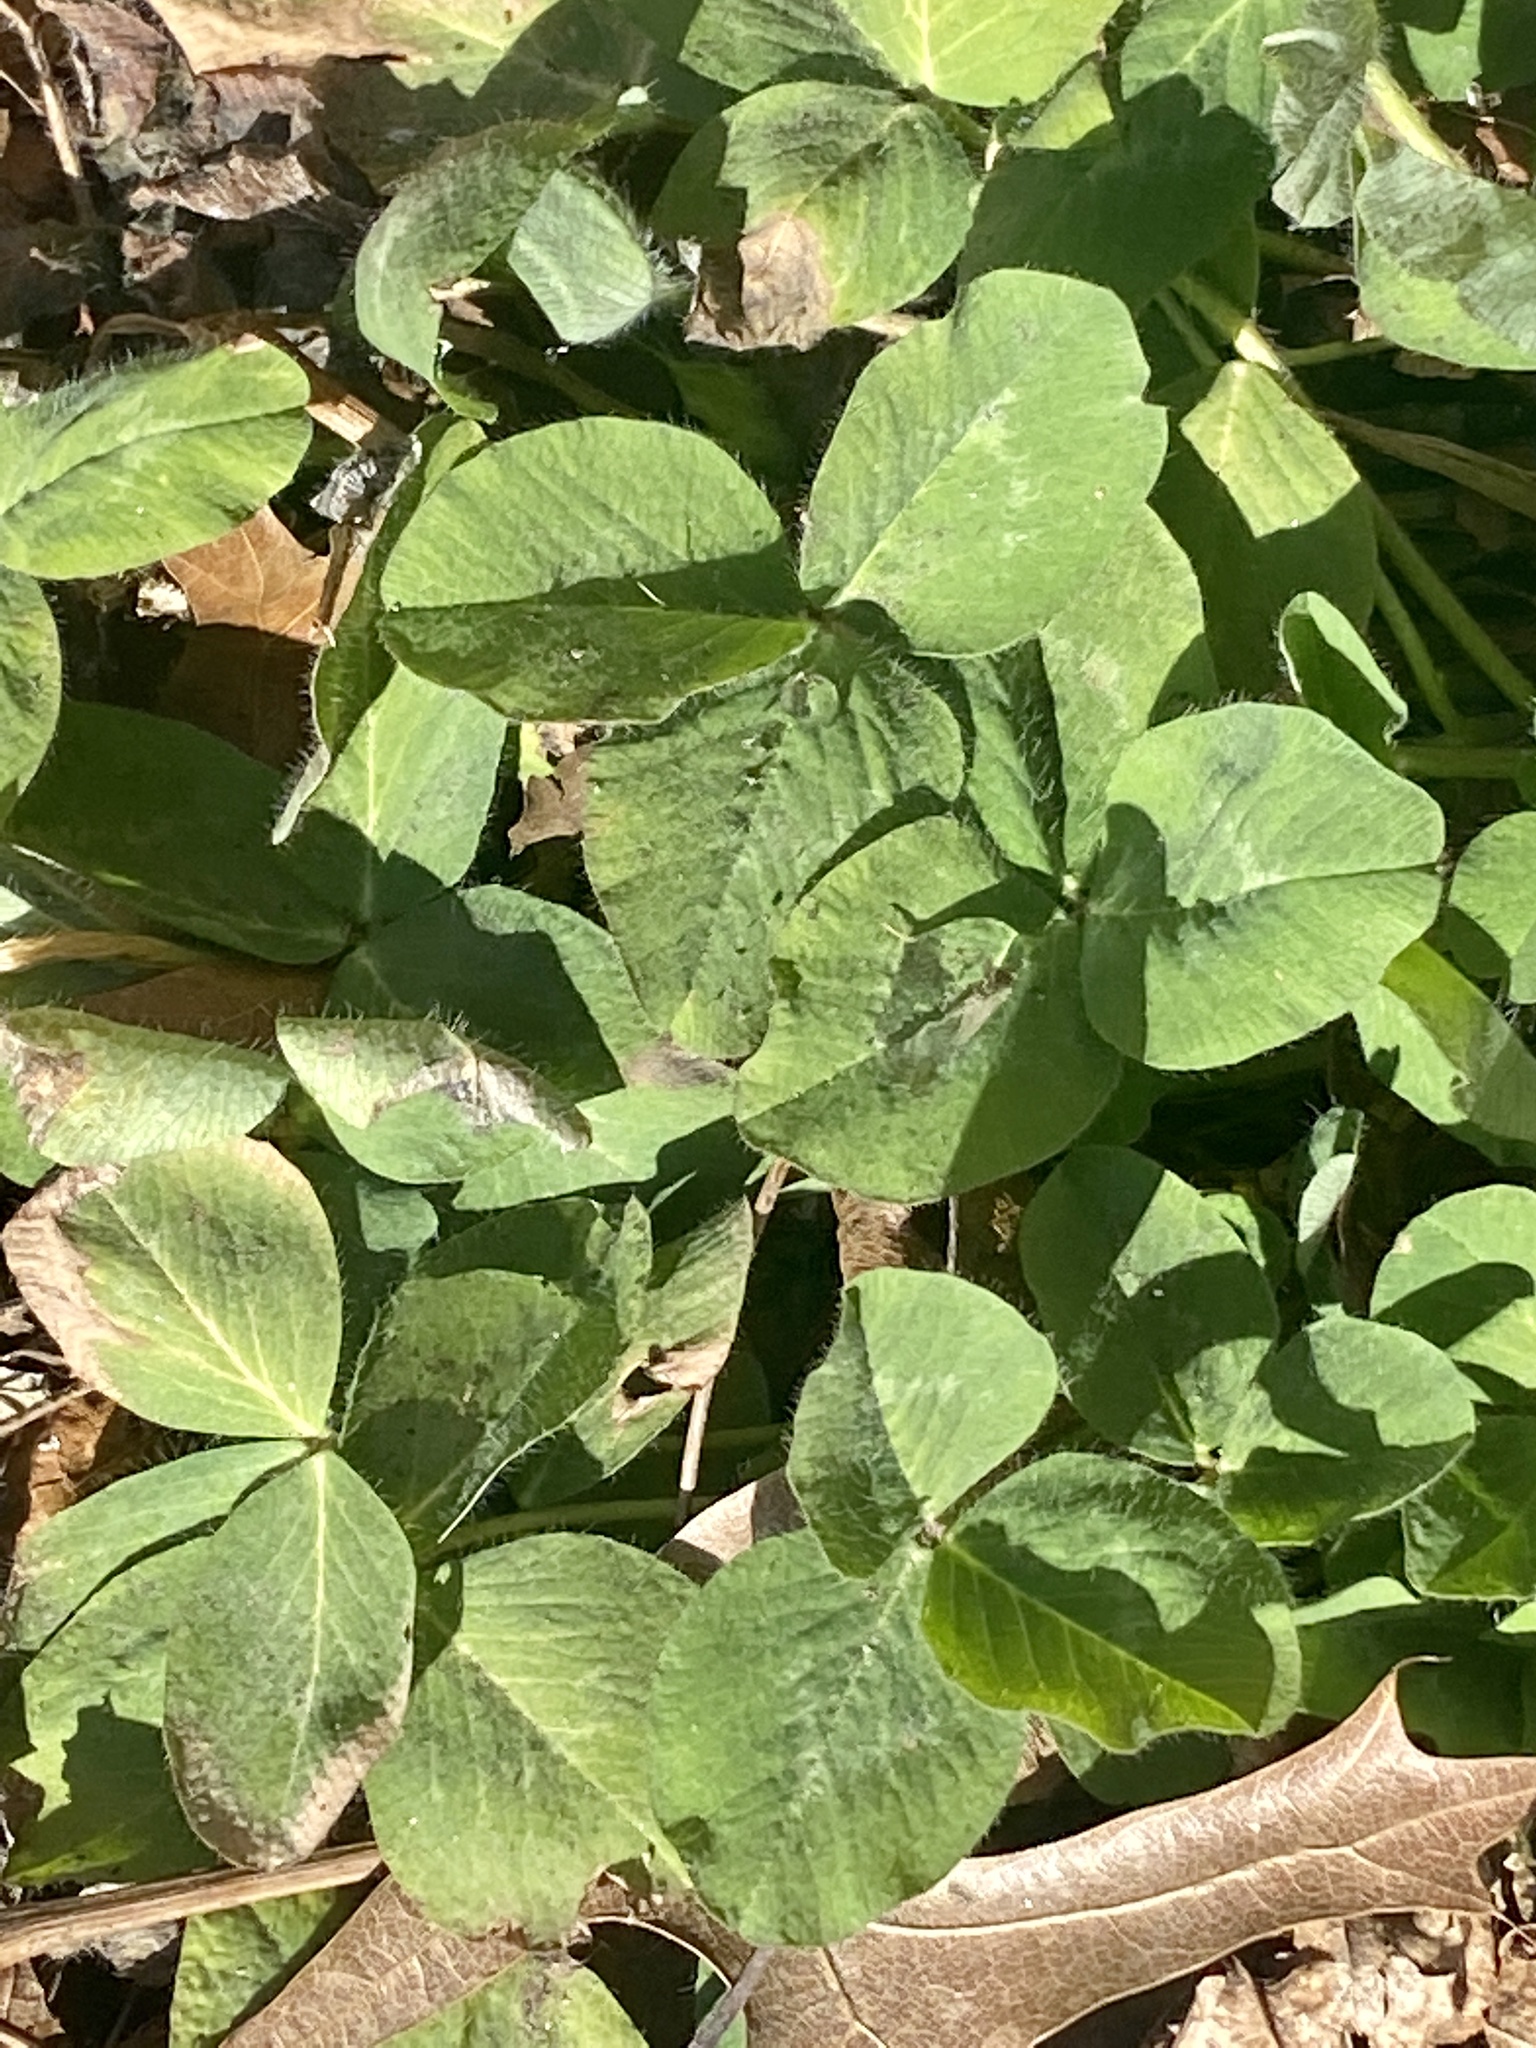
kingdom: Plantae
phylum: Tracheophyta
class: Magnoliopsida
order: Fabales
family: Fabaceae
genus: Trifolium
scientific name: Trifolium pratense
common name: Red clover
